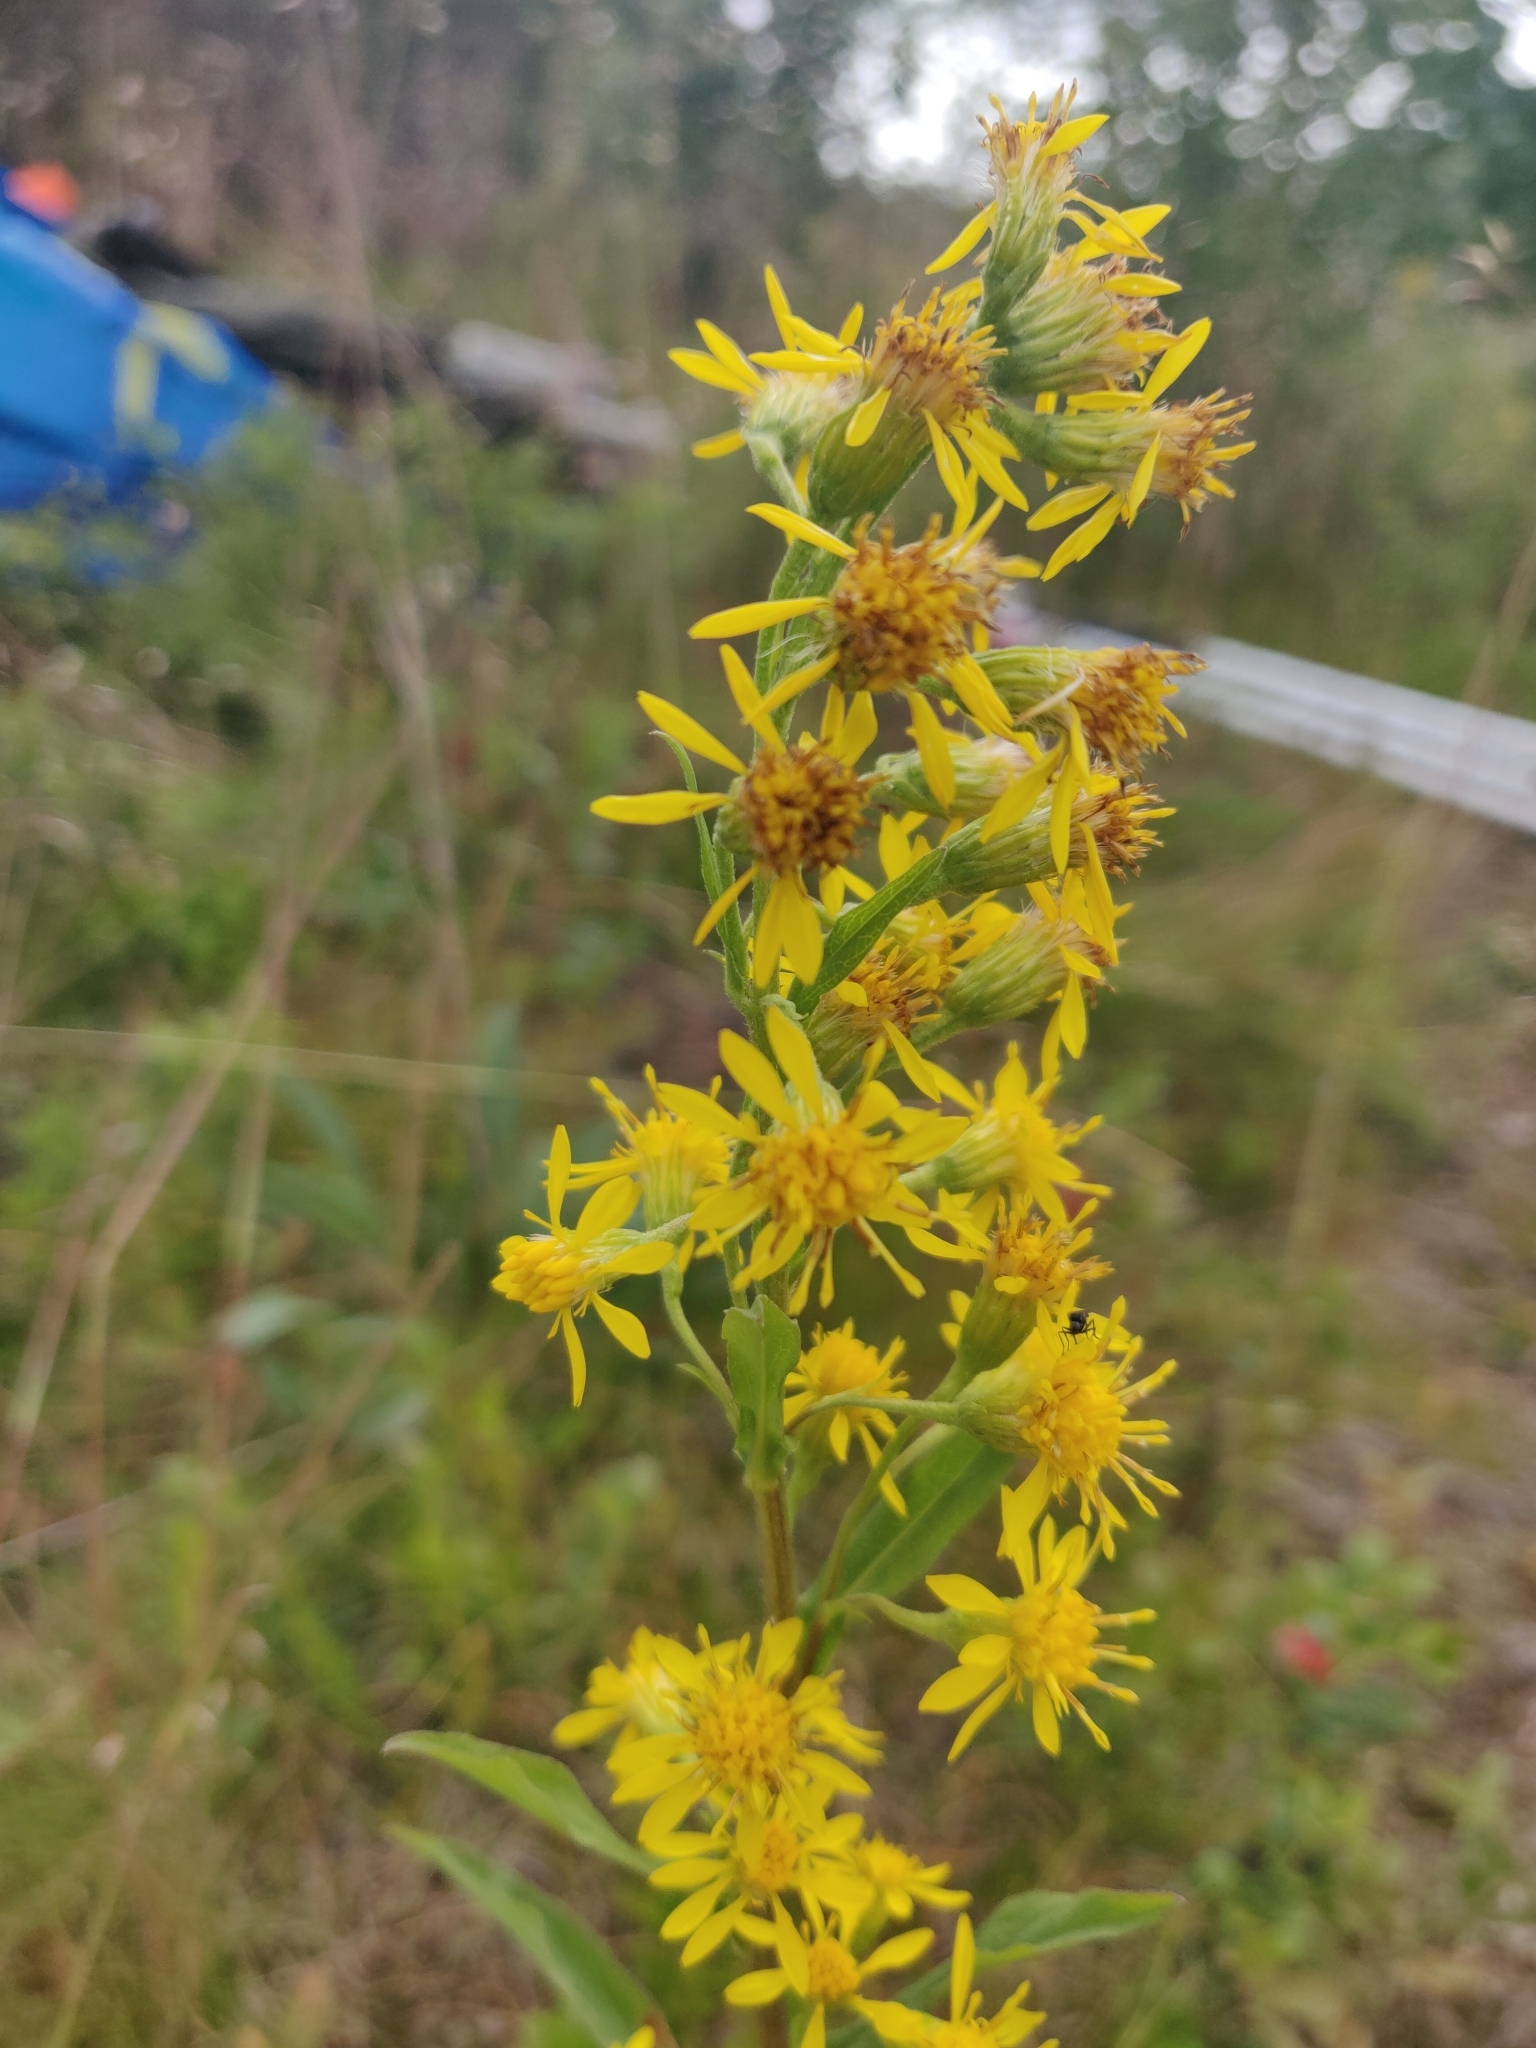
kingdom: Plantae
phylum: Tracheophyta
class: Magnoliopsida
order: Asterales
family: Asteraceae
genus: Solidago
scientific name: Solidago virgaurea
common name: Goldenrod
